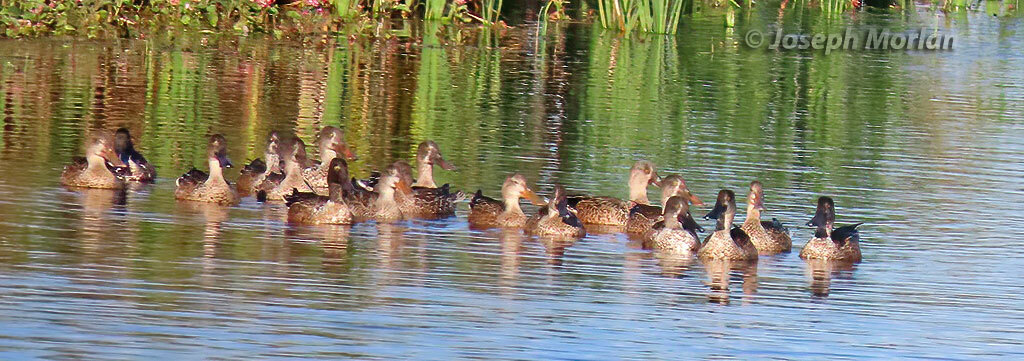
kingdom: Animalia
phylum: Chordata
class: Aves
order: Anseriformes
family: Anatidae
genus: Spatula
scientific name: Spatula clypeata
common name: Northern shoveler
